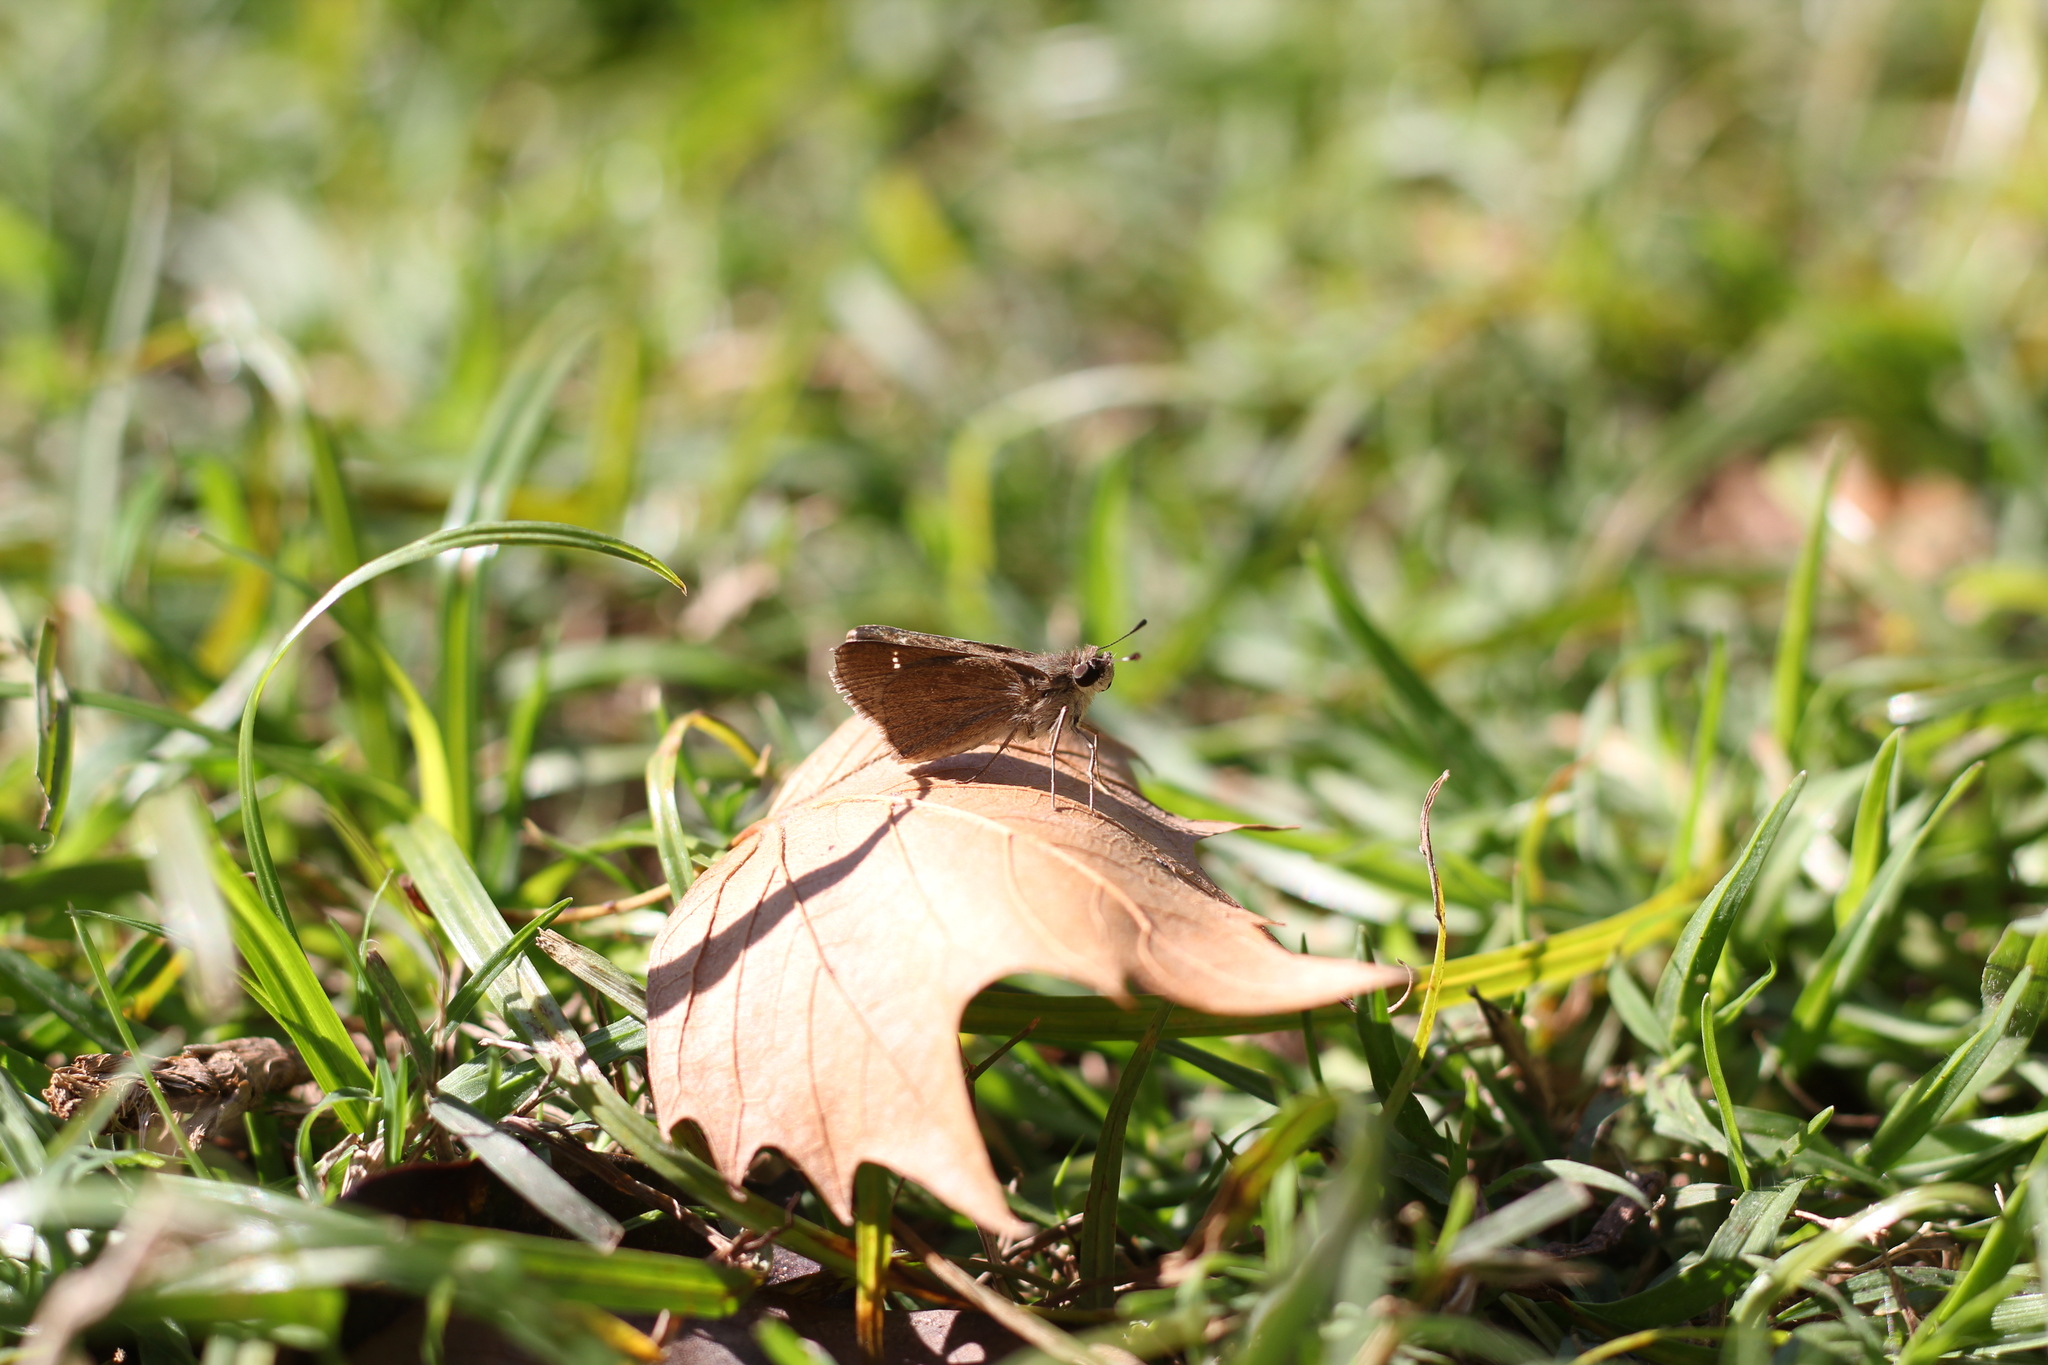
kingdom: Animalia
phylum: Arthropoda
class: Insecta
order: Lepidoptera
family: Hesperiidae
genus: Lerodea
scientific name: Lerodea eufala
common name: Eufala skipper
